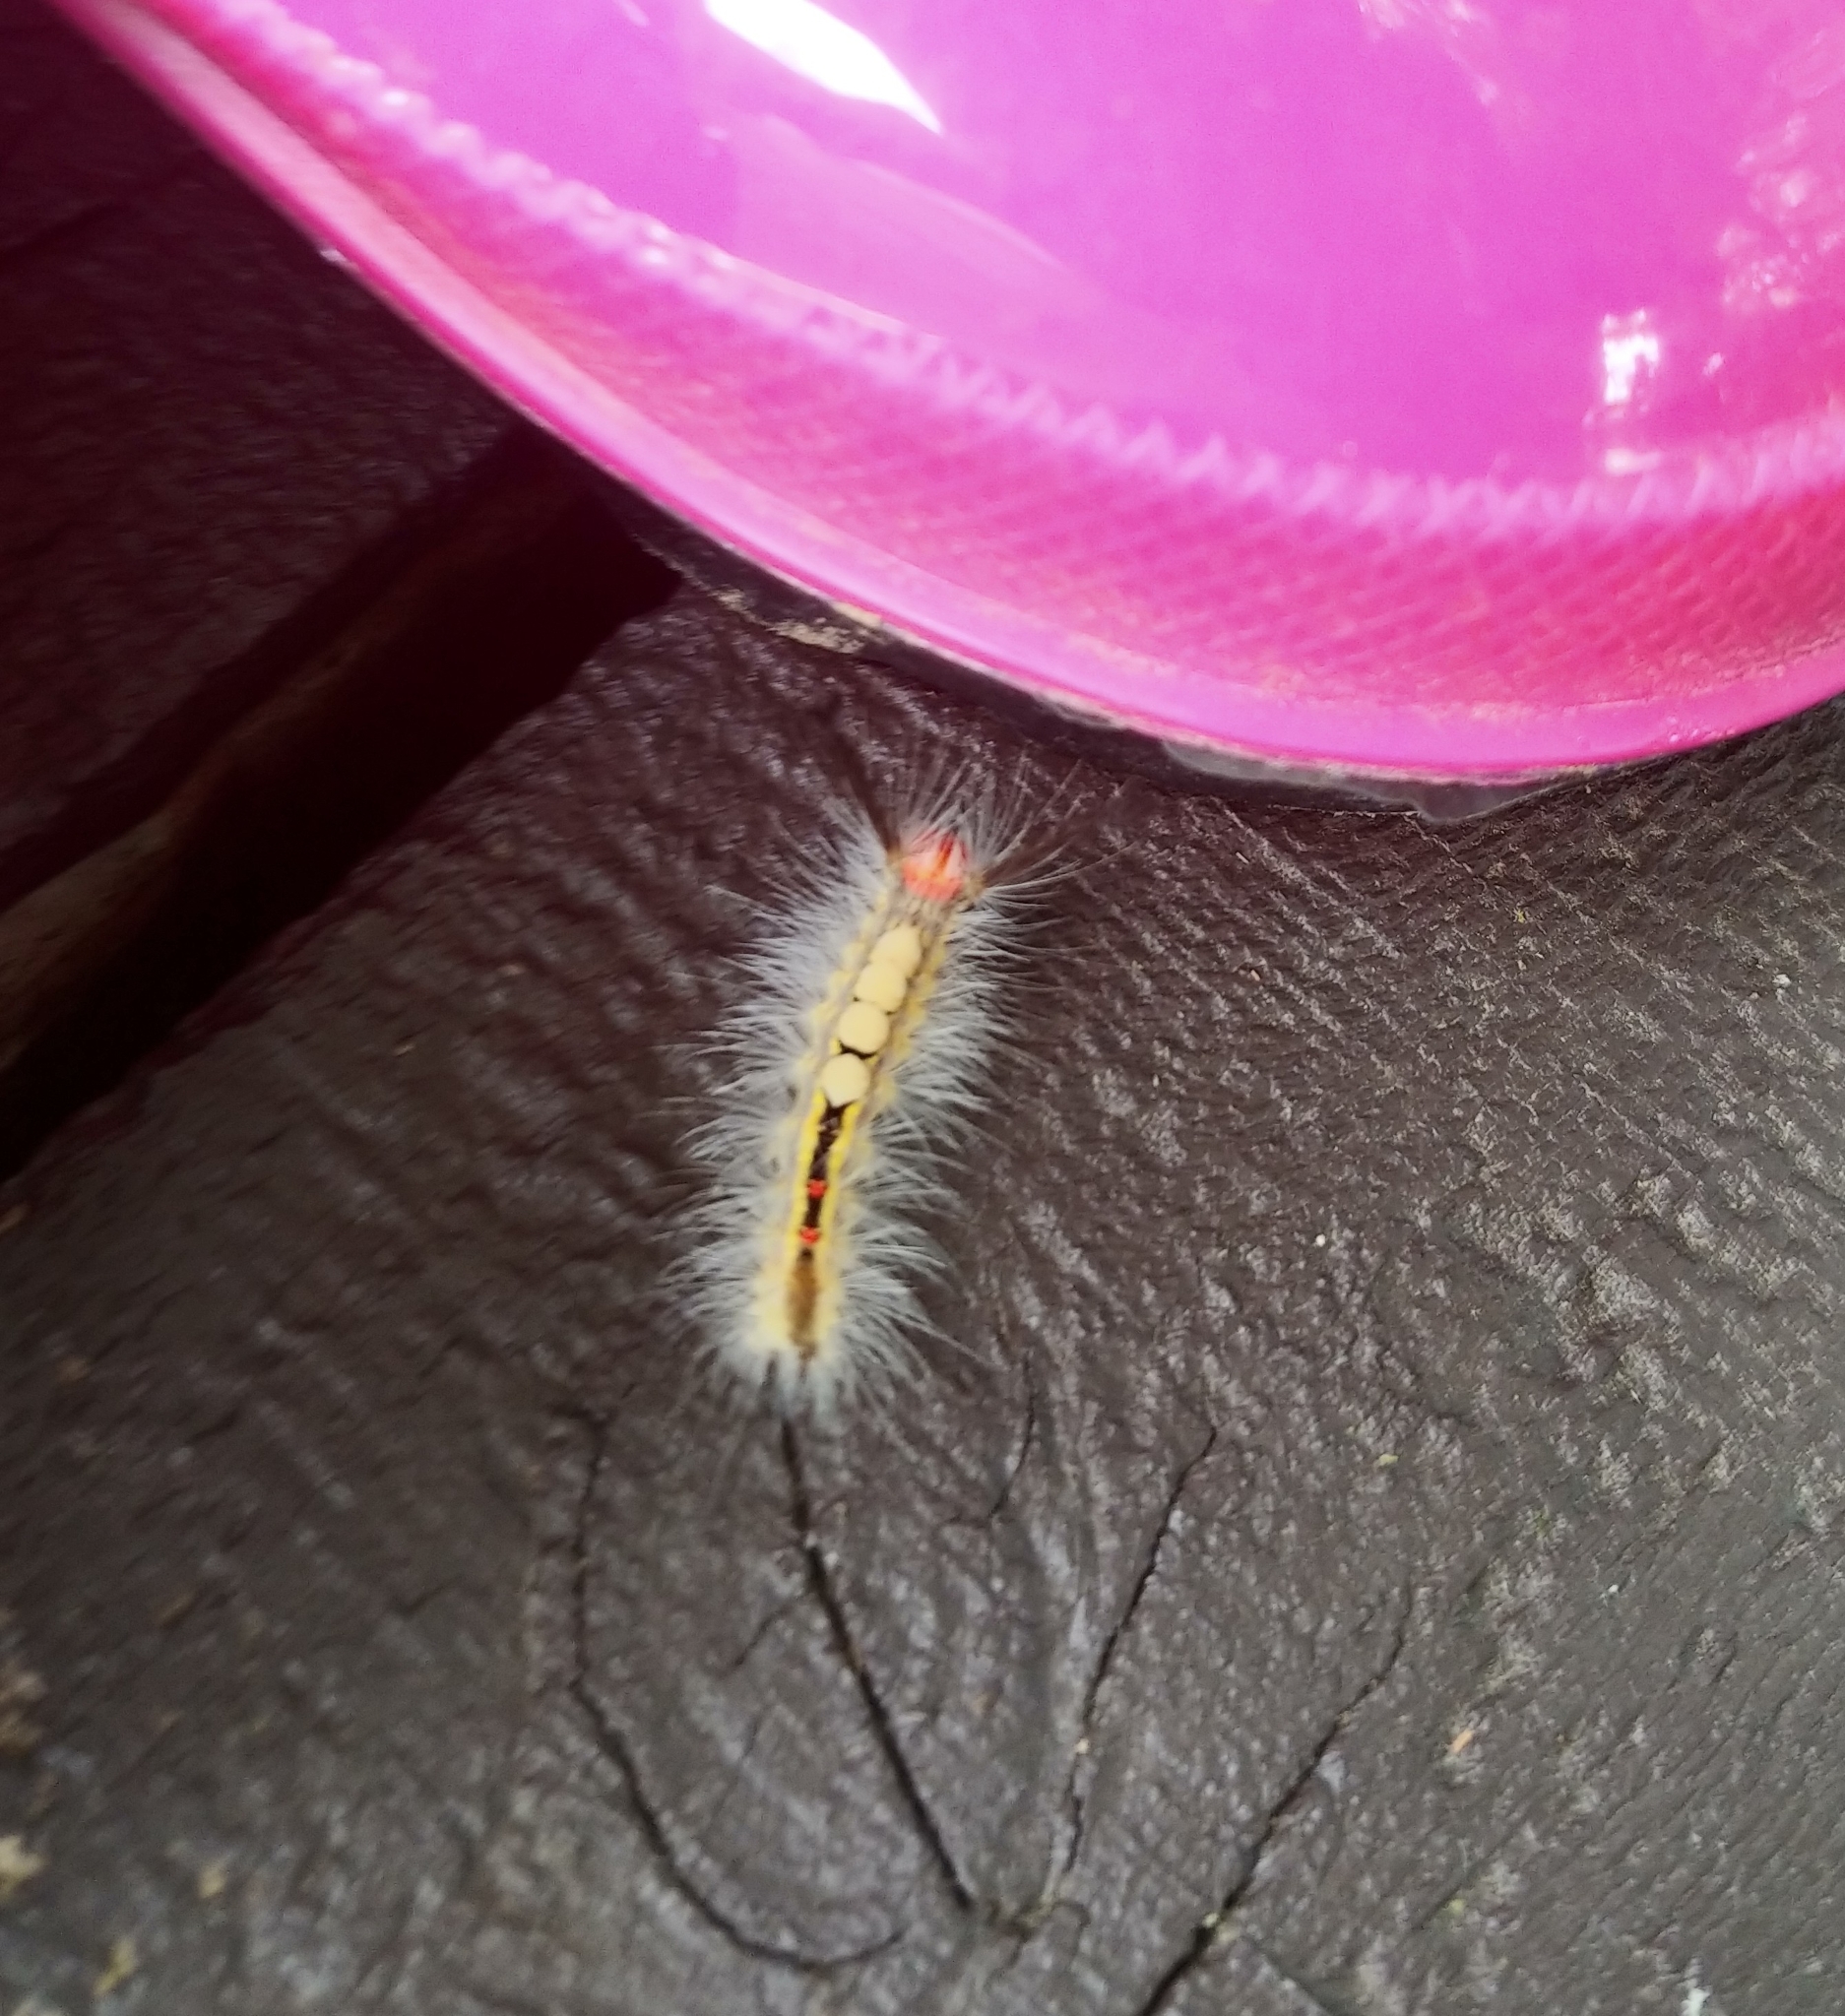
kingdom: Animalia
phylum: Arthropoda
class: Insecta
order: Lepidoptera
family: Erebidae
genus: Orgyia
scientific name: Orgyia leucostigma
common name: White-marked tussock moth
